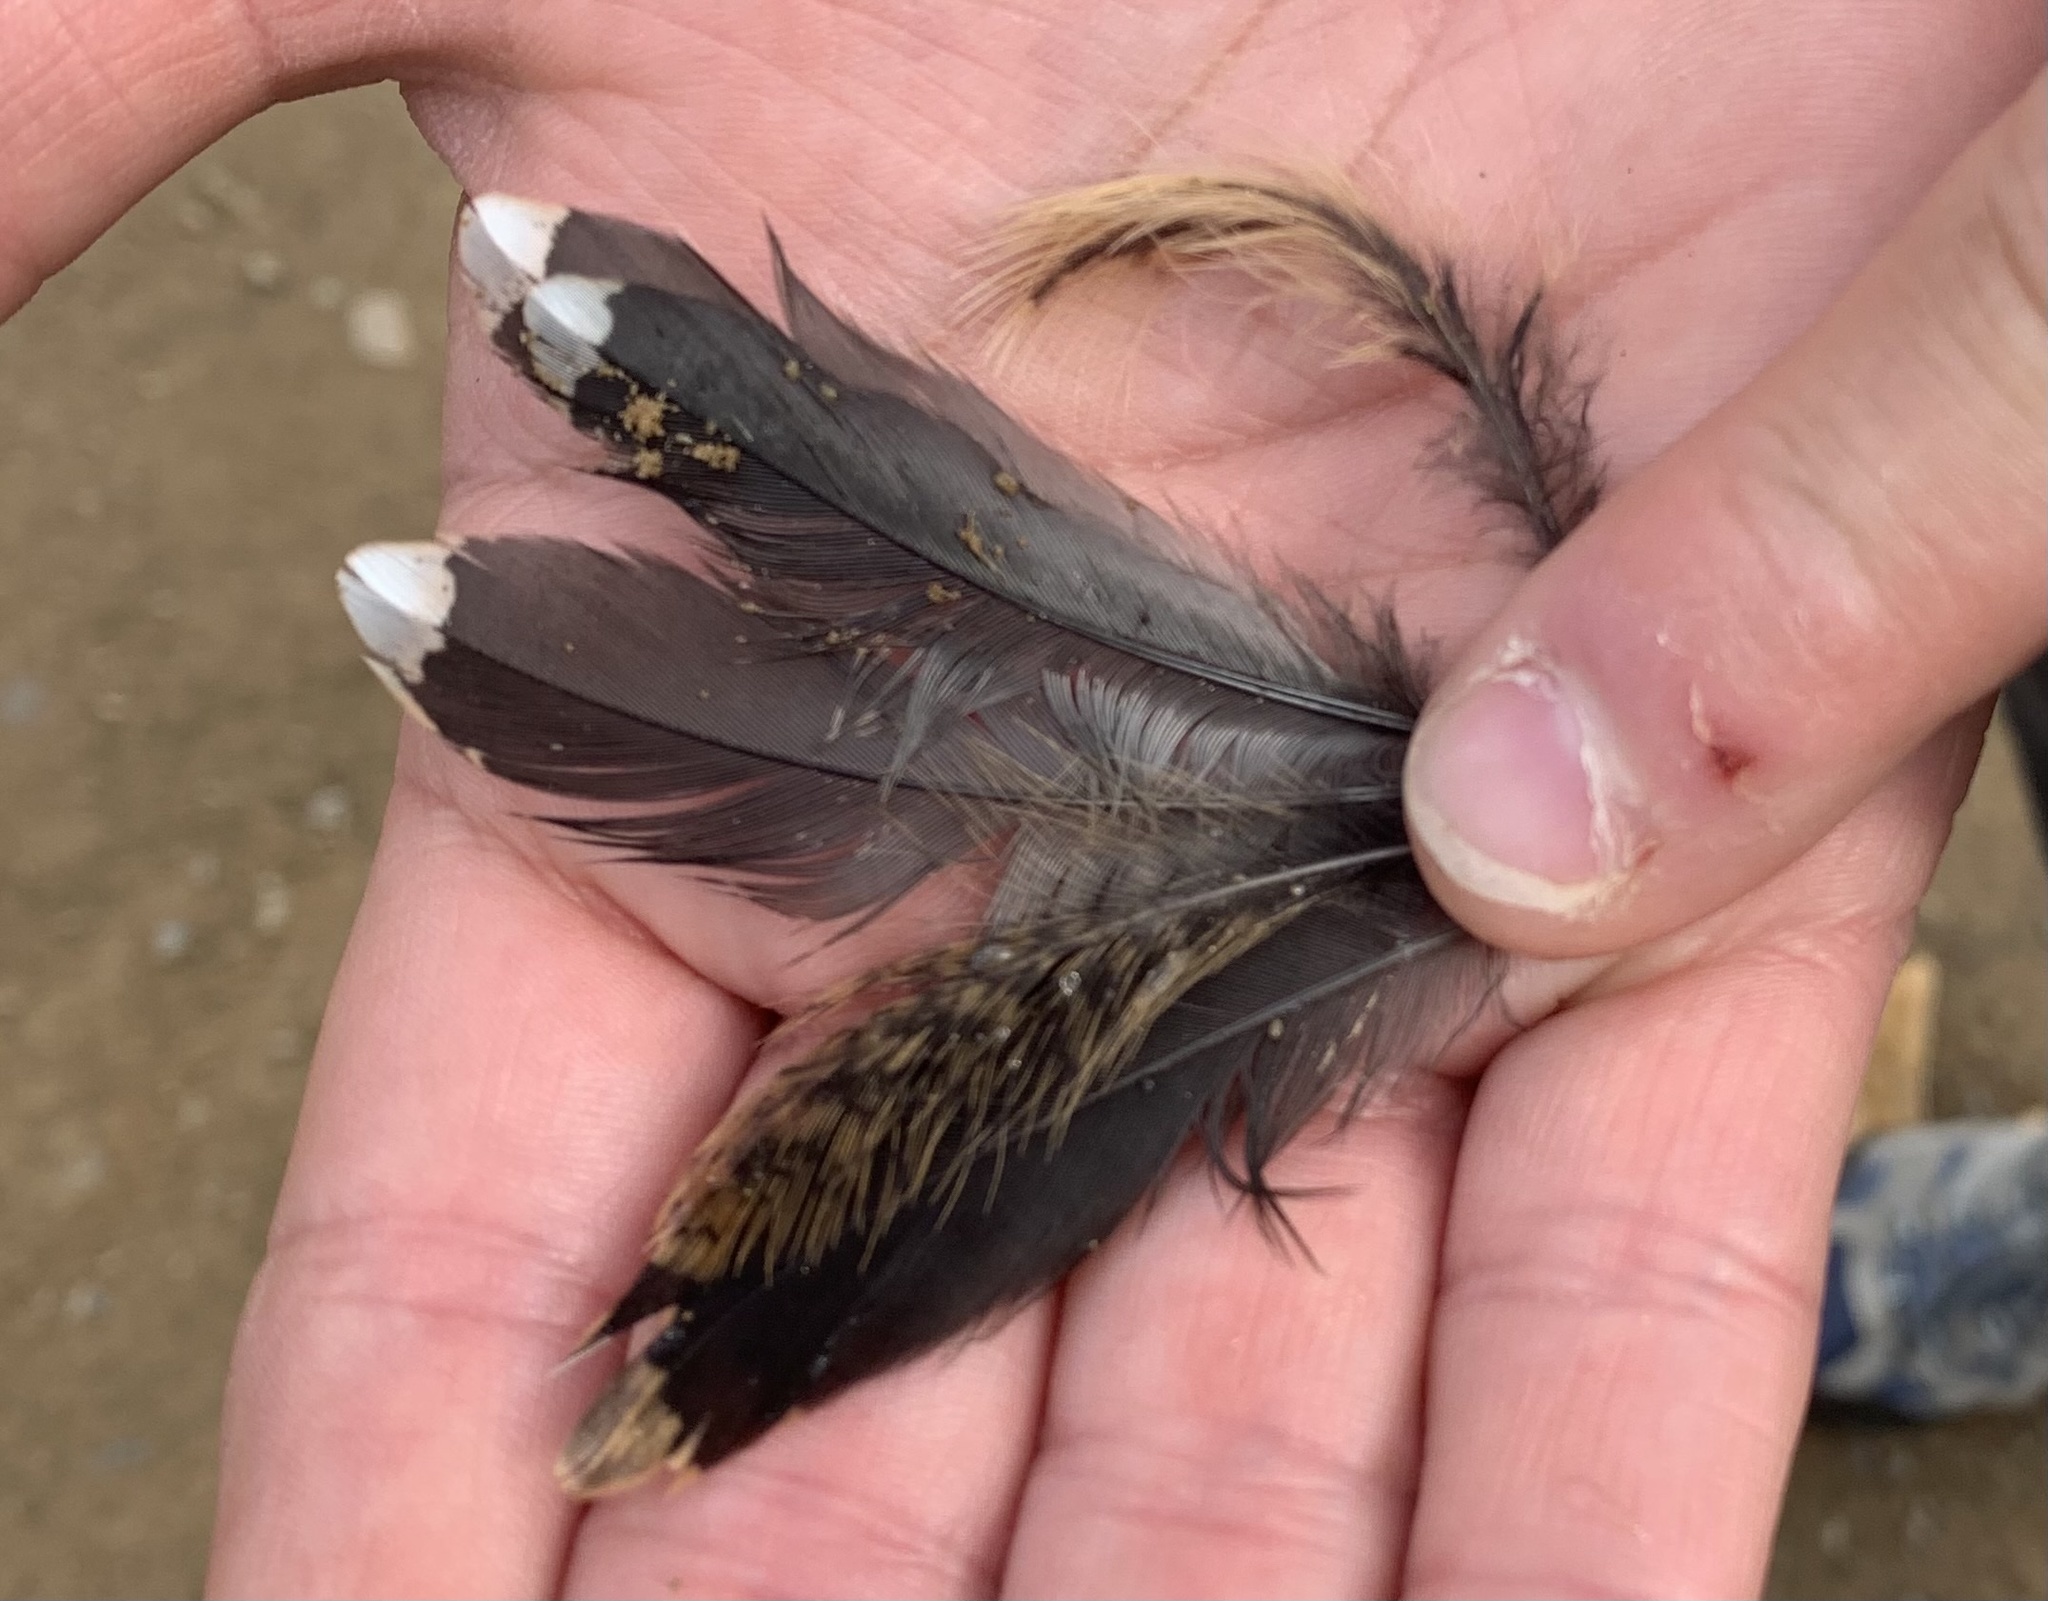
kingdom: Animalia
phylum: Chordata
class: Aves
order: Charadriiformes
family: Scolopacidae
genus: Scolopax
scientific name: Scolopax minor
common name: American woodcock
